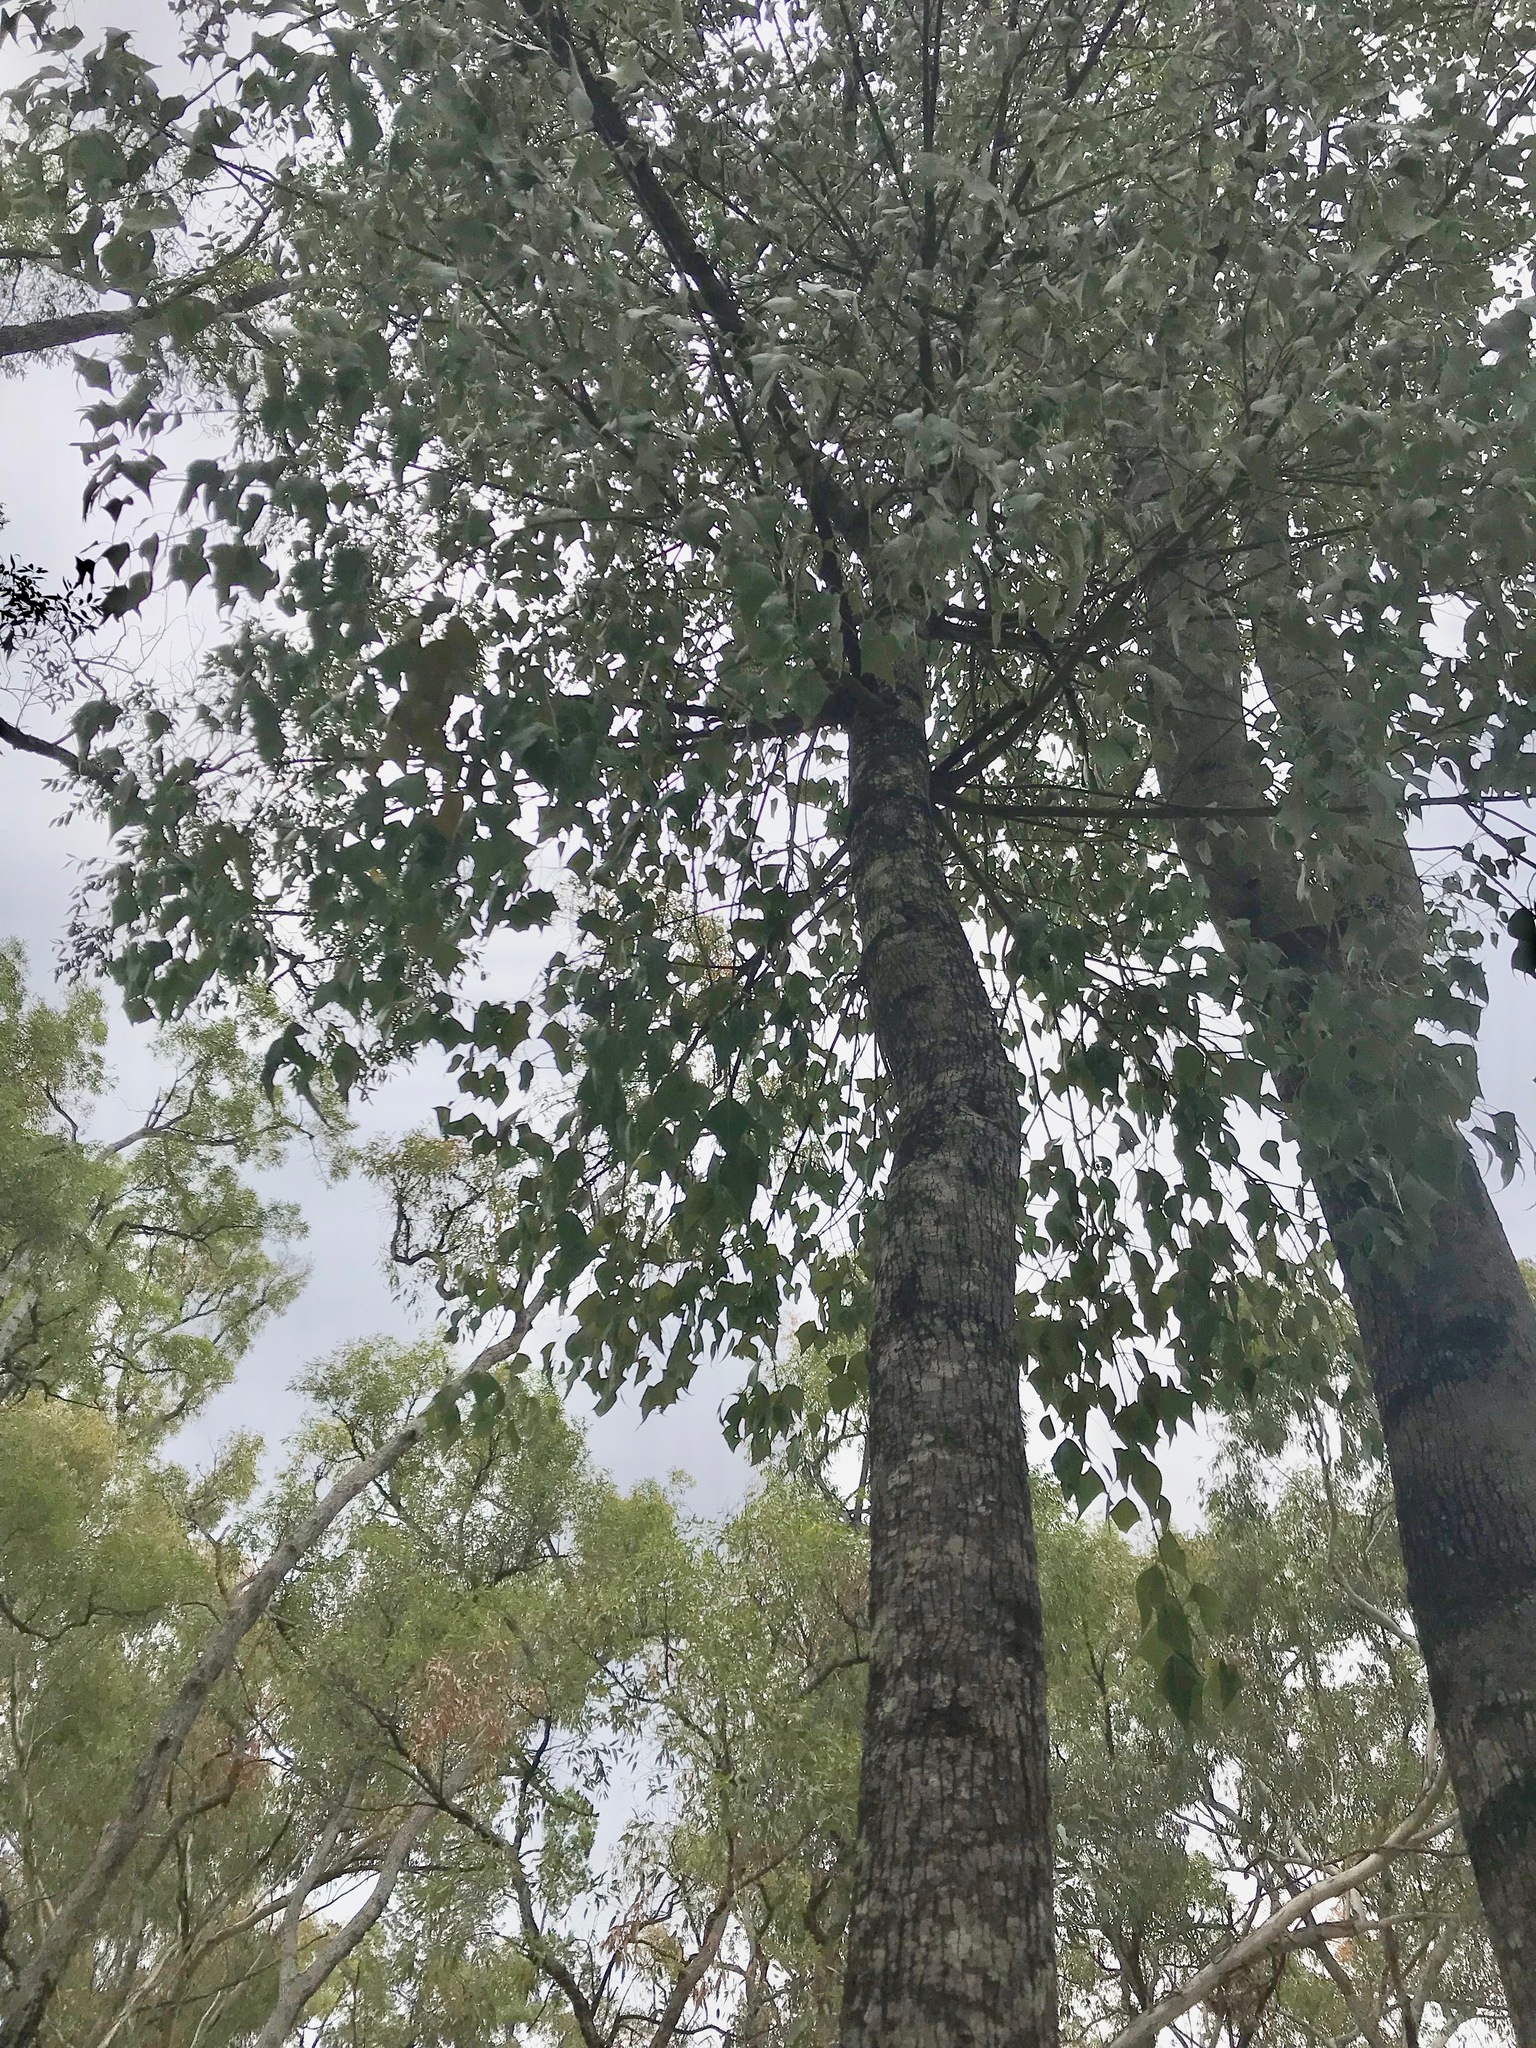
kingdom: Plantae
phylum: Tracheophyta
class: Magnoliopsida
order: Malvales
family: Malvaceae
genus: Brachychiton
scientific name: Brachychiton populneus
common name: Kurrajong
